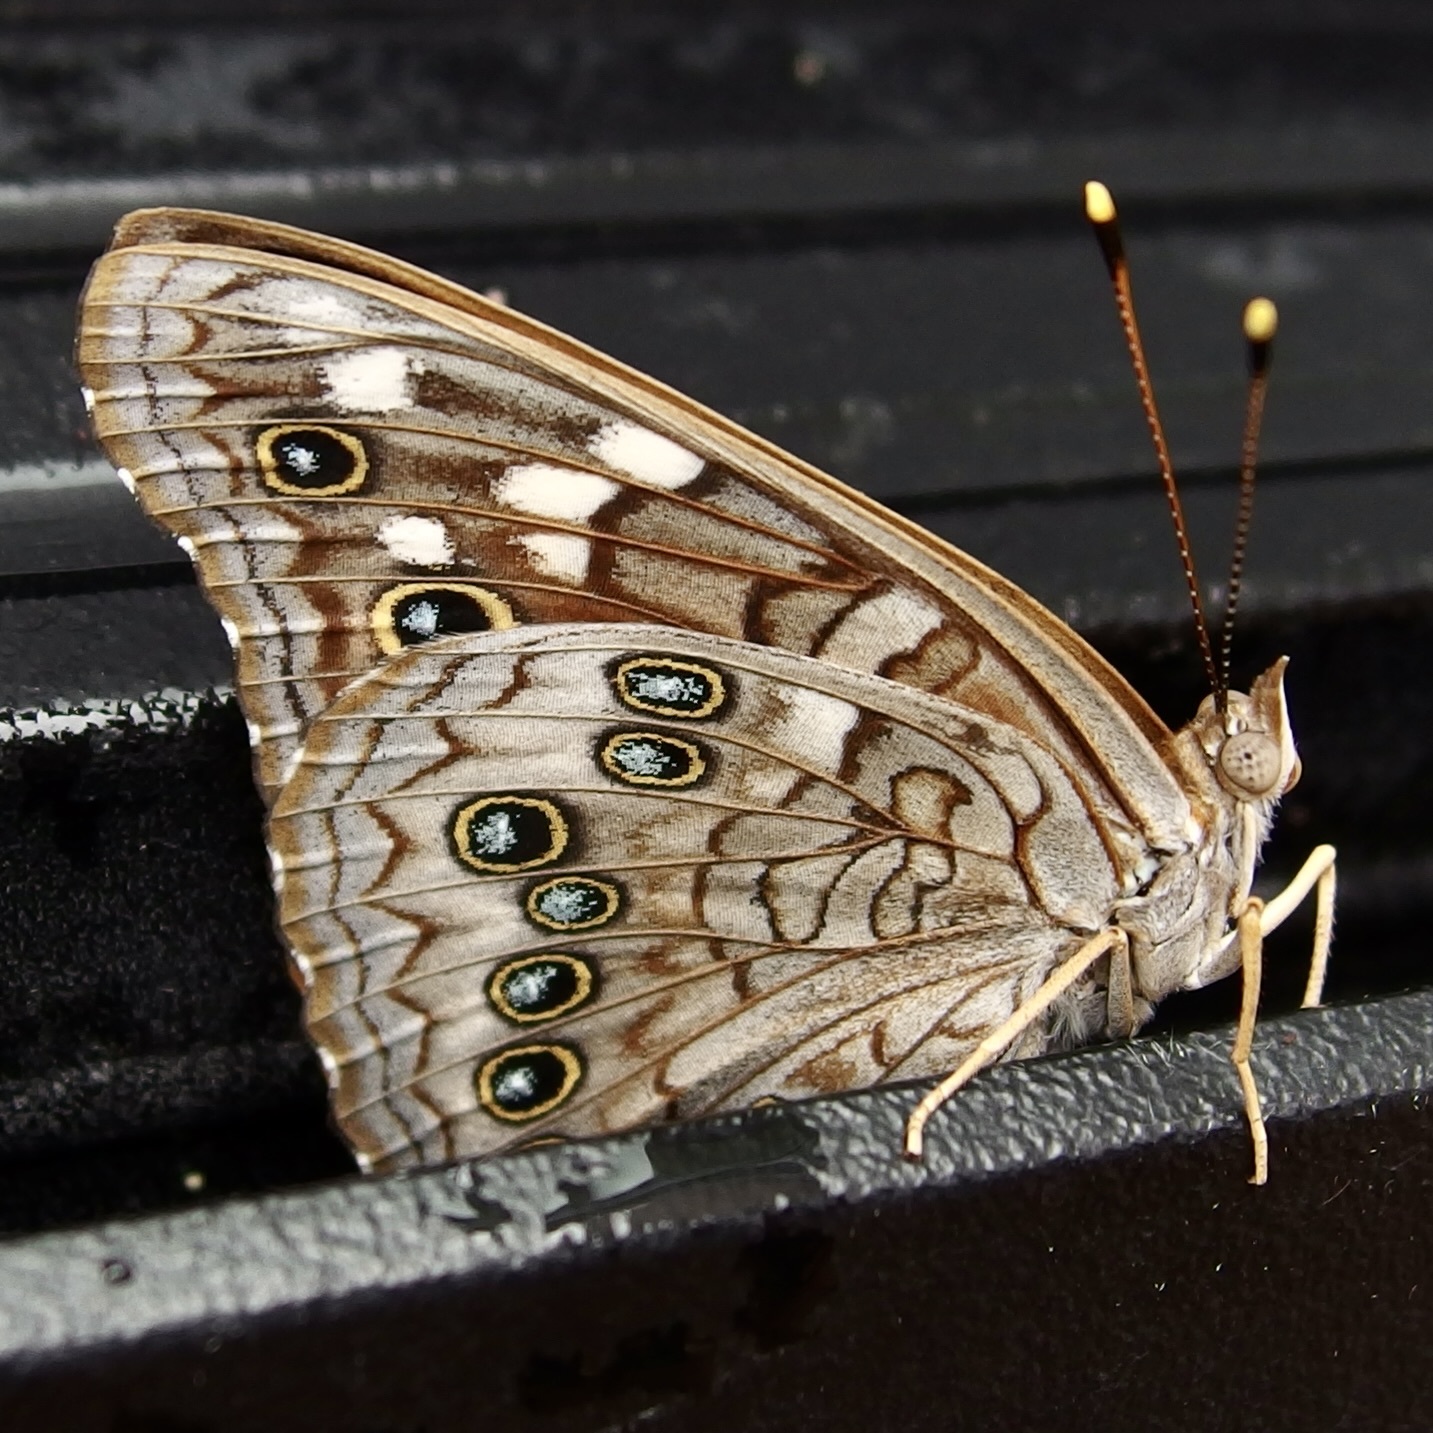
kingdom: Animalia
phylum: Arthropoda
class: Insecta
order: Lepidoptera
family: Nymphalidae
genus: Asterocampa
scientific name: Asterocampa leilia
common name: Empress leilia
